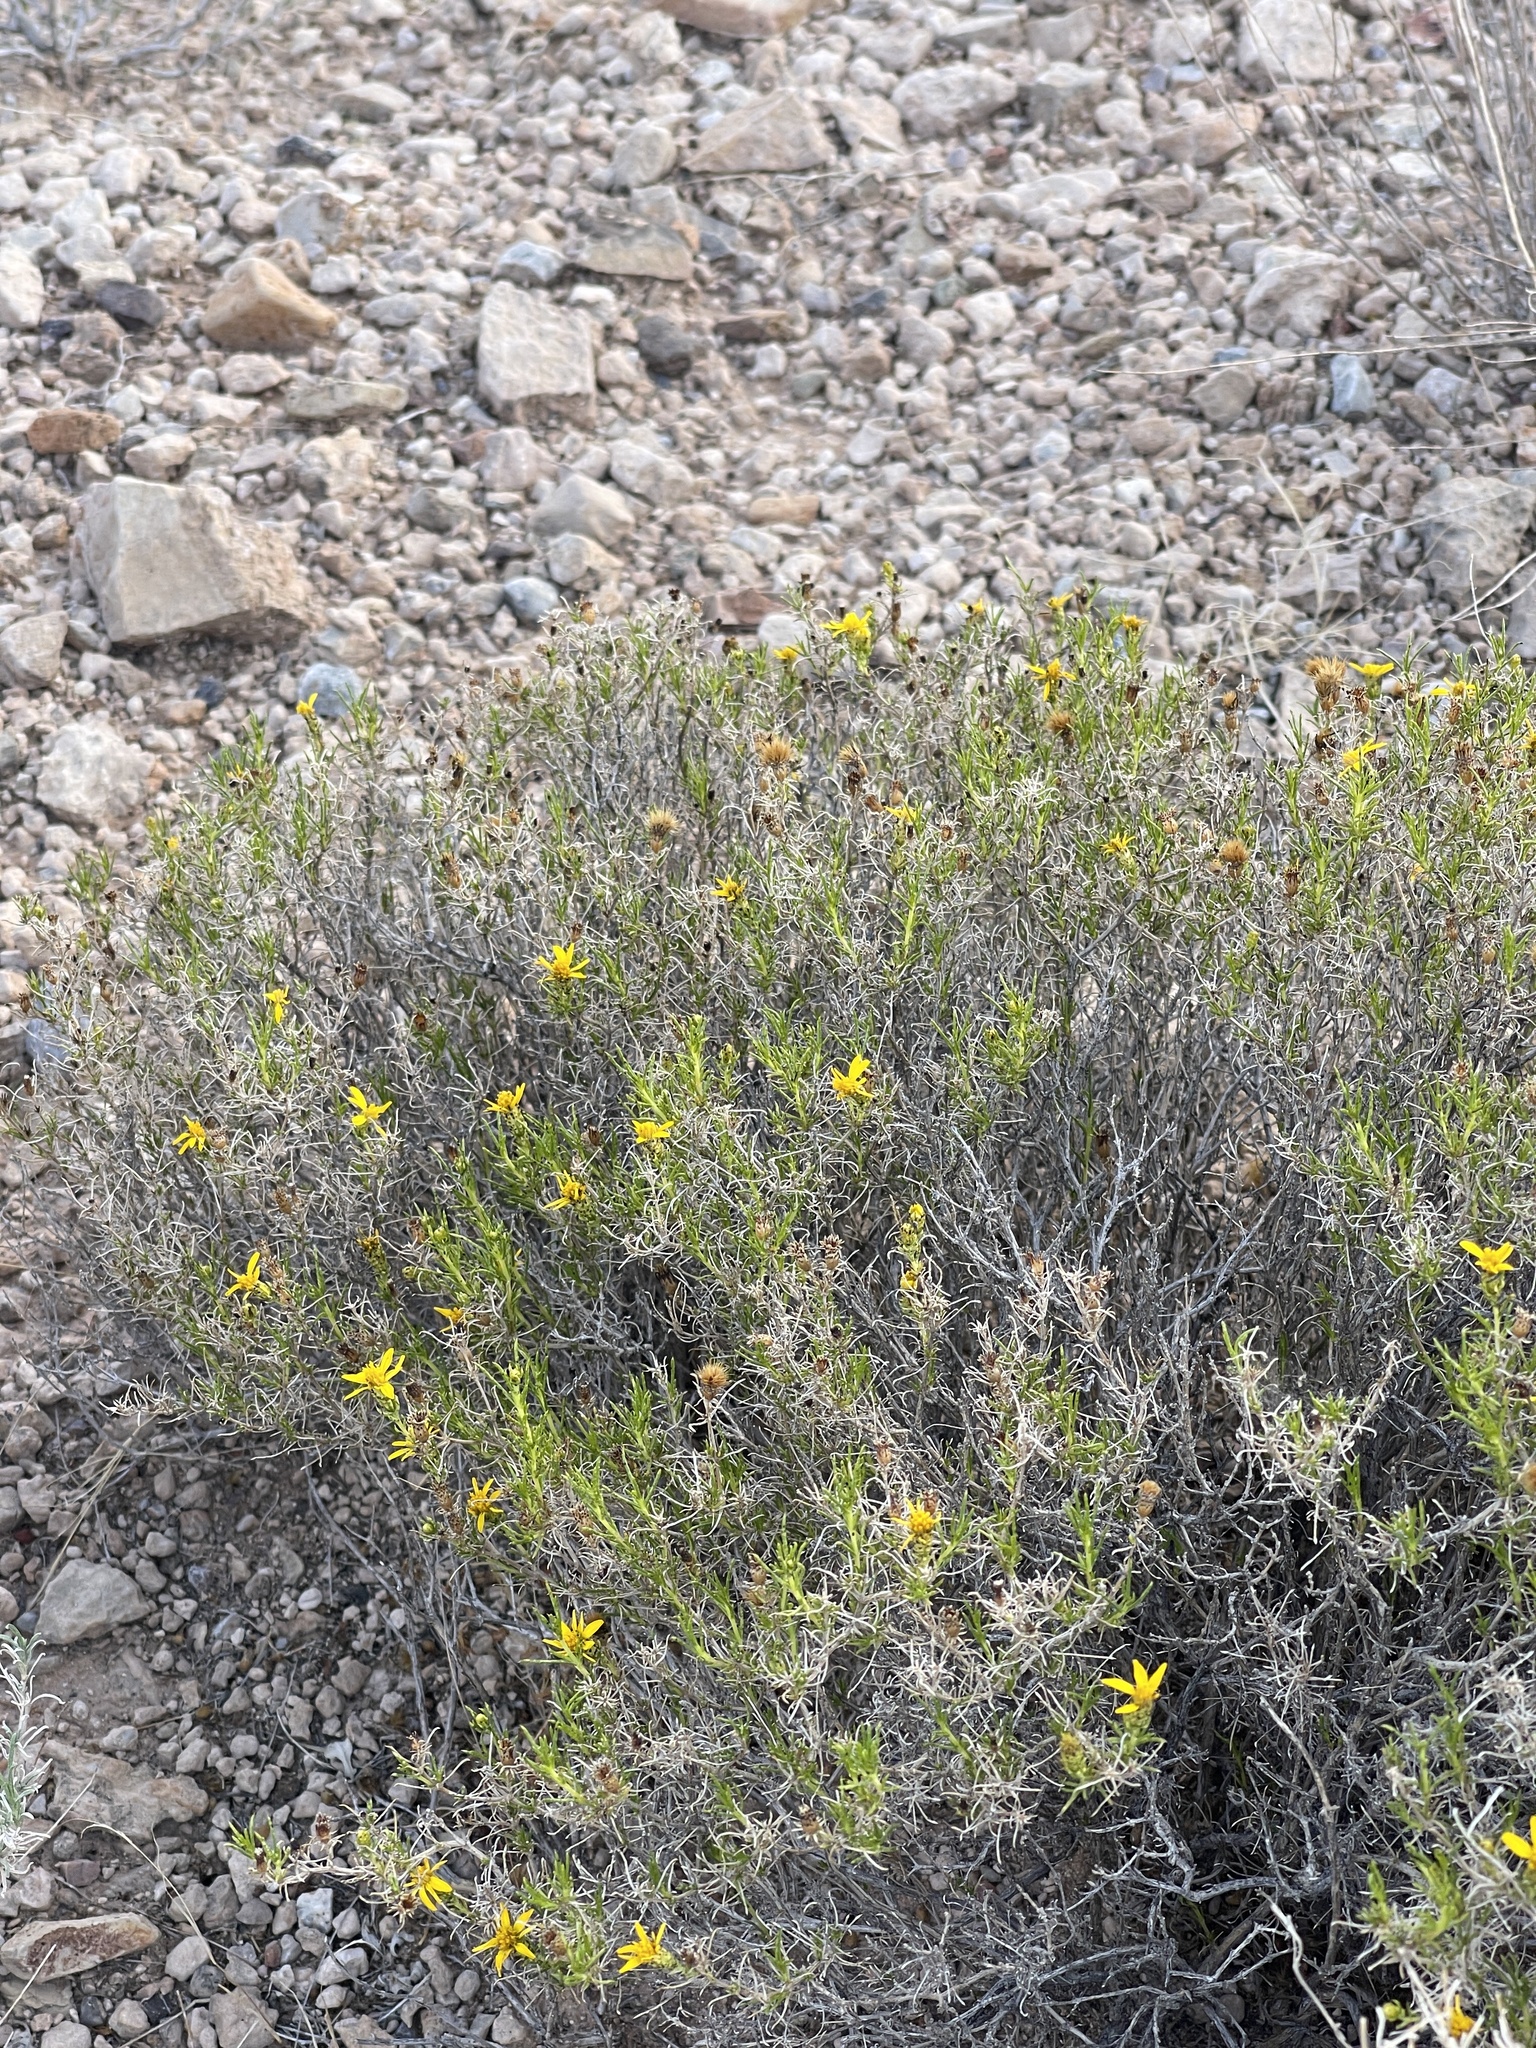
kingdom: Plantae
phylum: Tracheophyta
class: Magnoliopsida
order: Asterales
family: Asteraceae
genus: Thymophylla
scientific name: Thymophylla acerosa
